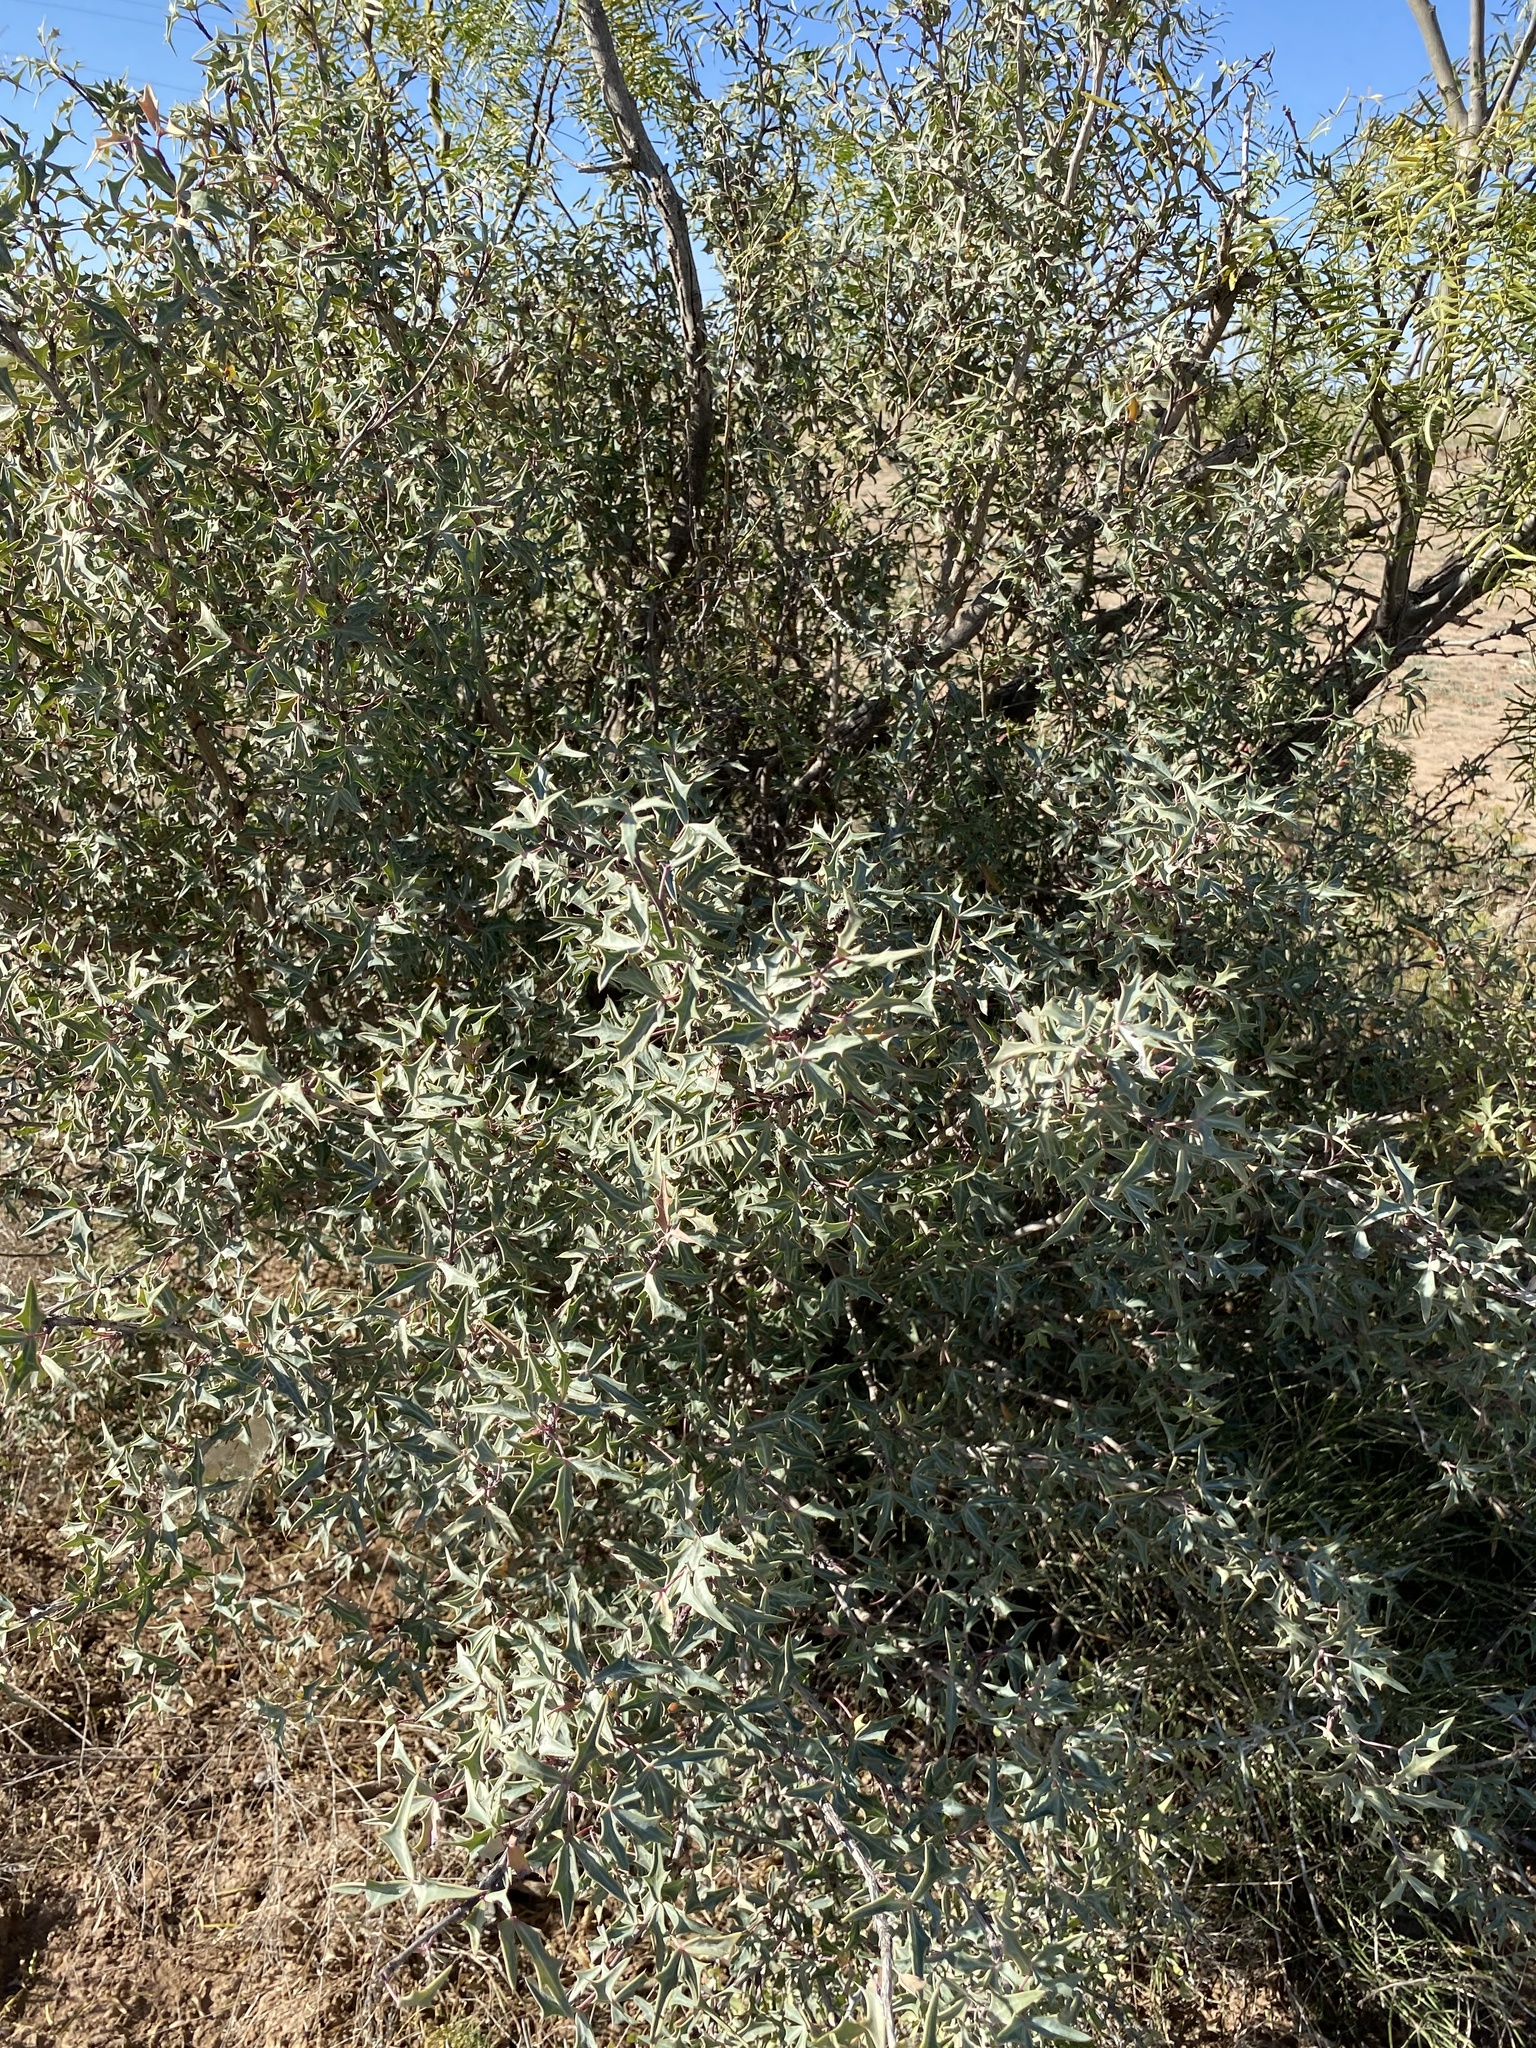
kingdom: Plantae
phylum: Tracheophyta
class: Magnoliopsida
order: Ranunculales
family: Berberidaceae
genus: Alloberberis
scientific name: Alloberberis trifoliolata
